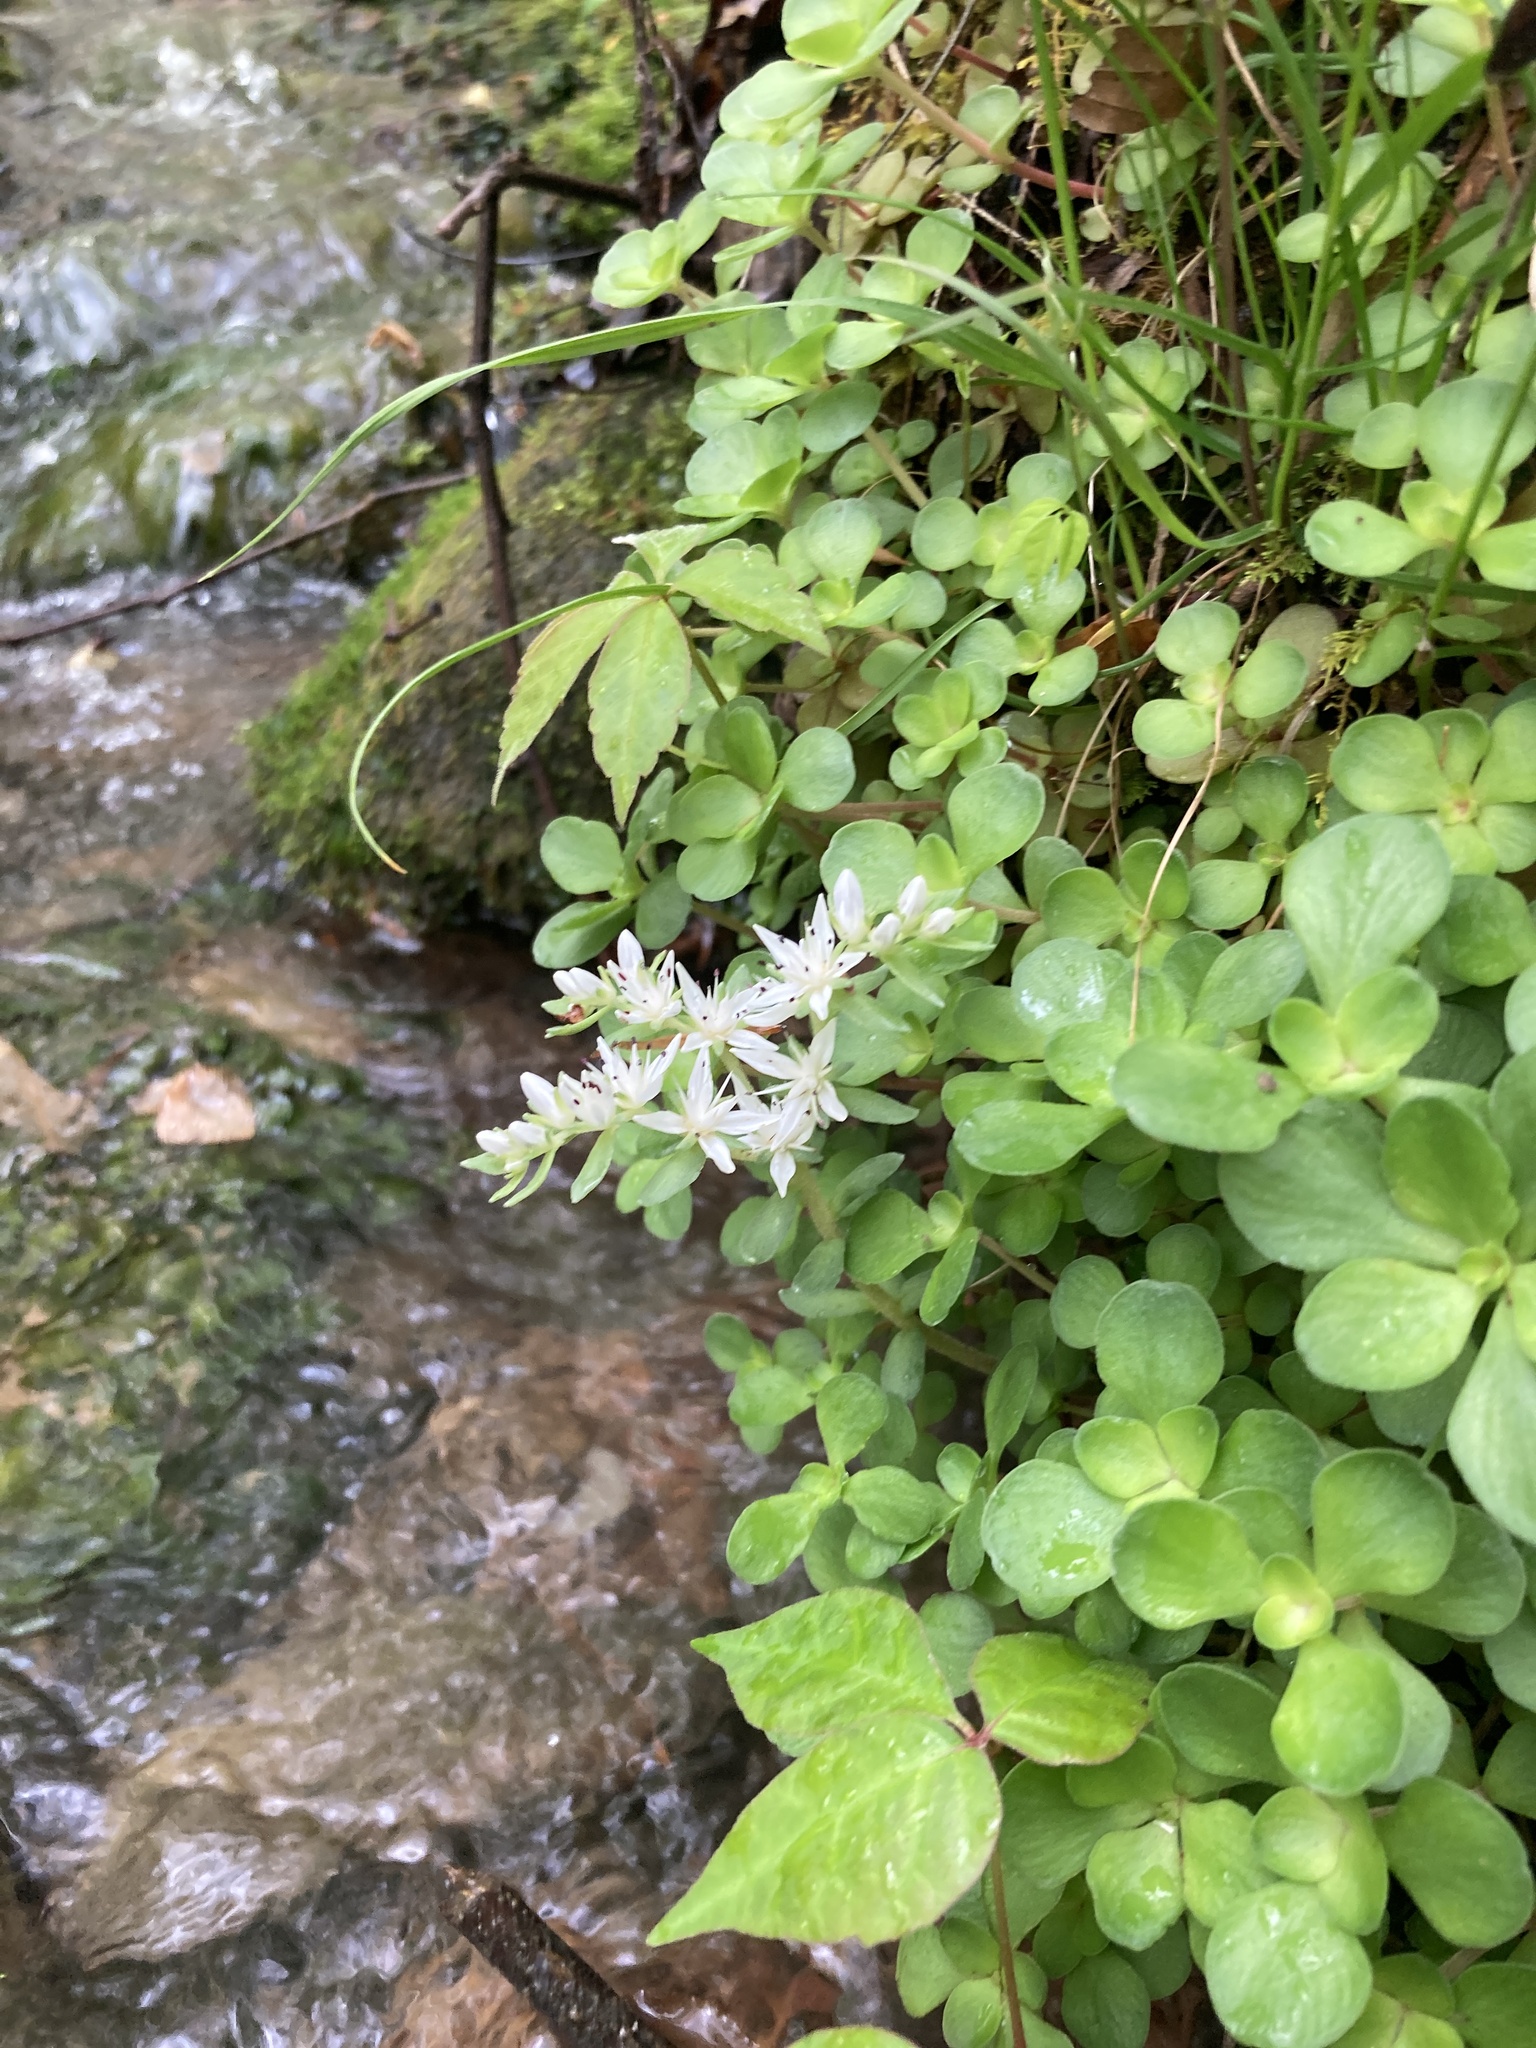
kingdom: Plantae
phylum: Tracheophyta
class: Magnoliopsida
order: Saxifragales
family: Crassulaceae
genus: Sedum
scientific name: Sedum ternatum
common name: Wild stonecrop
